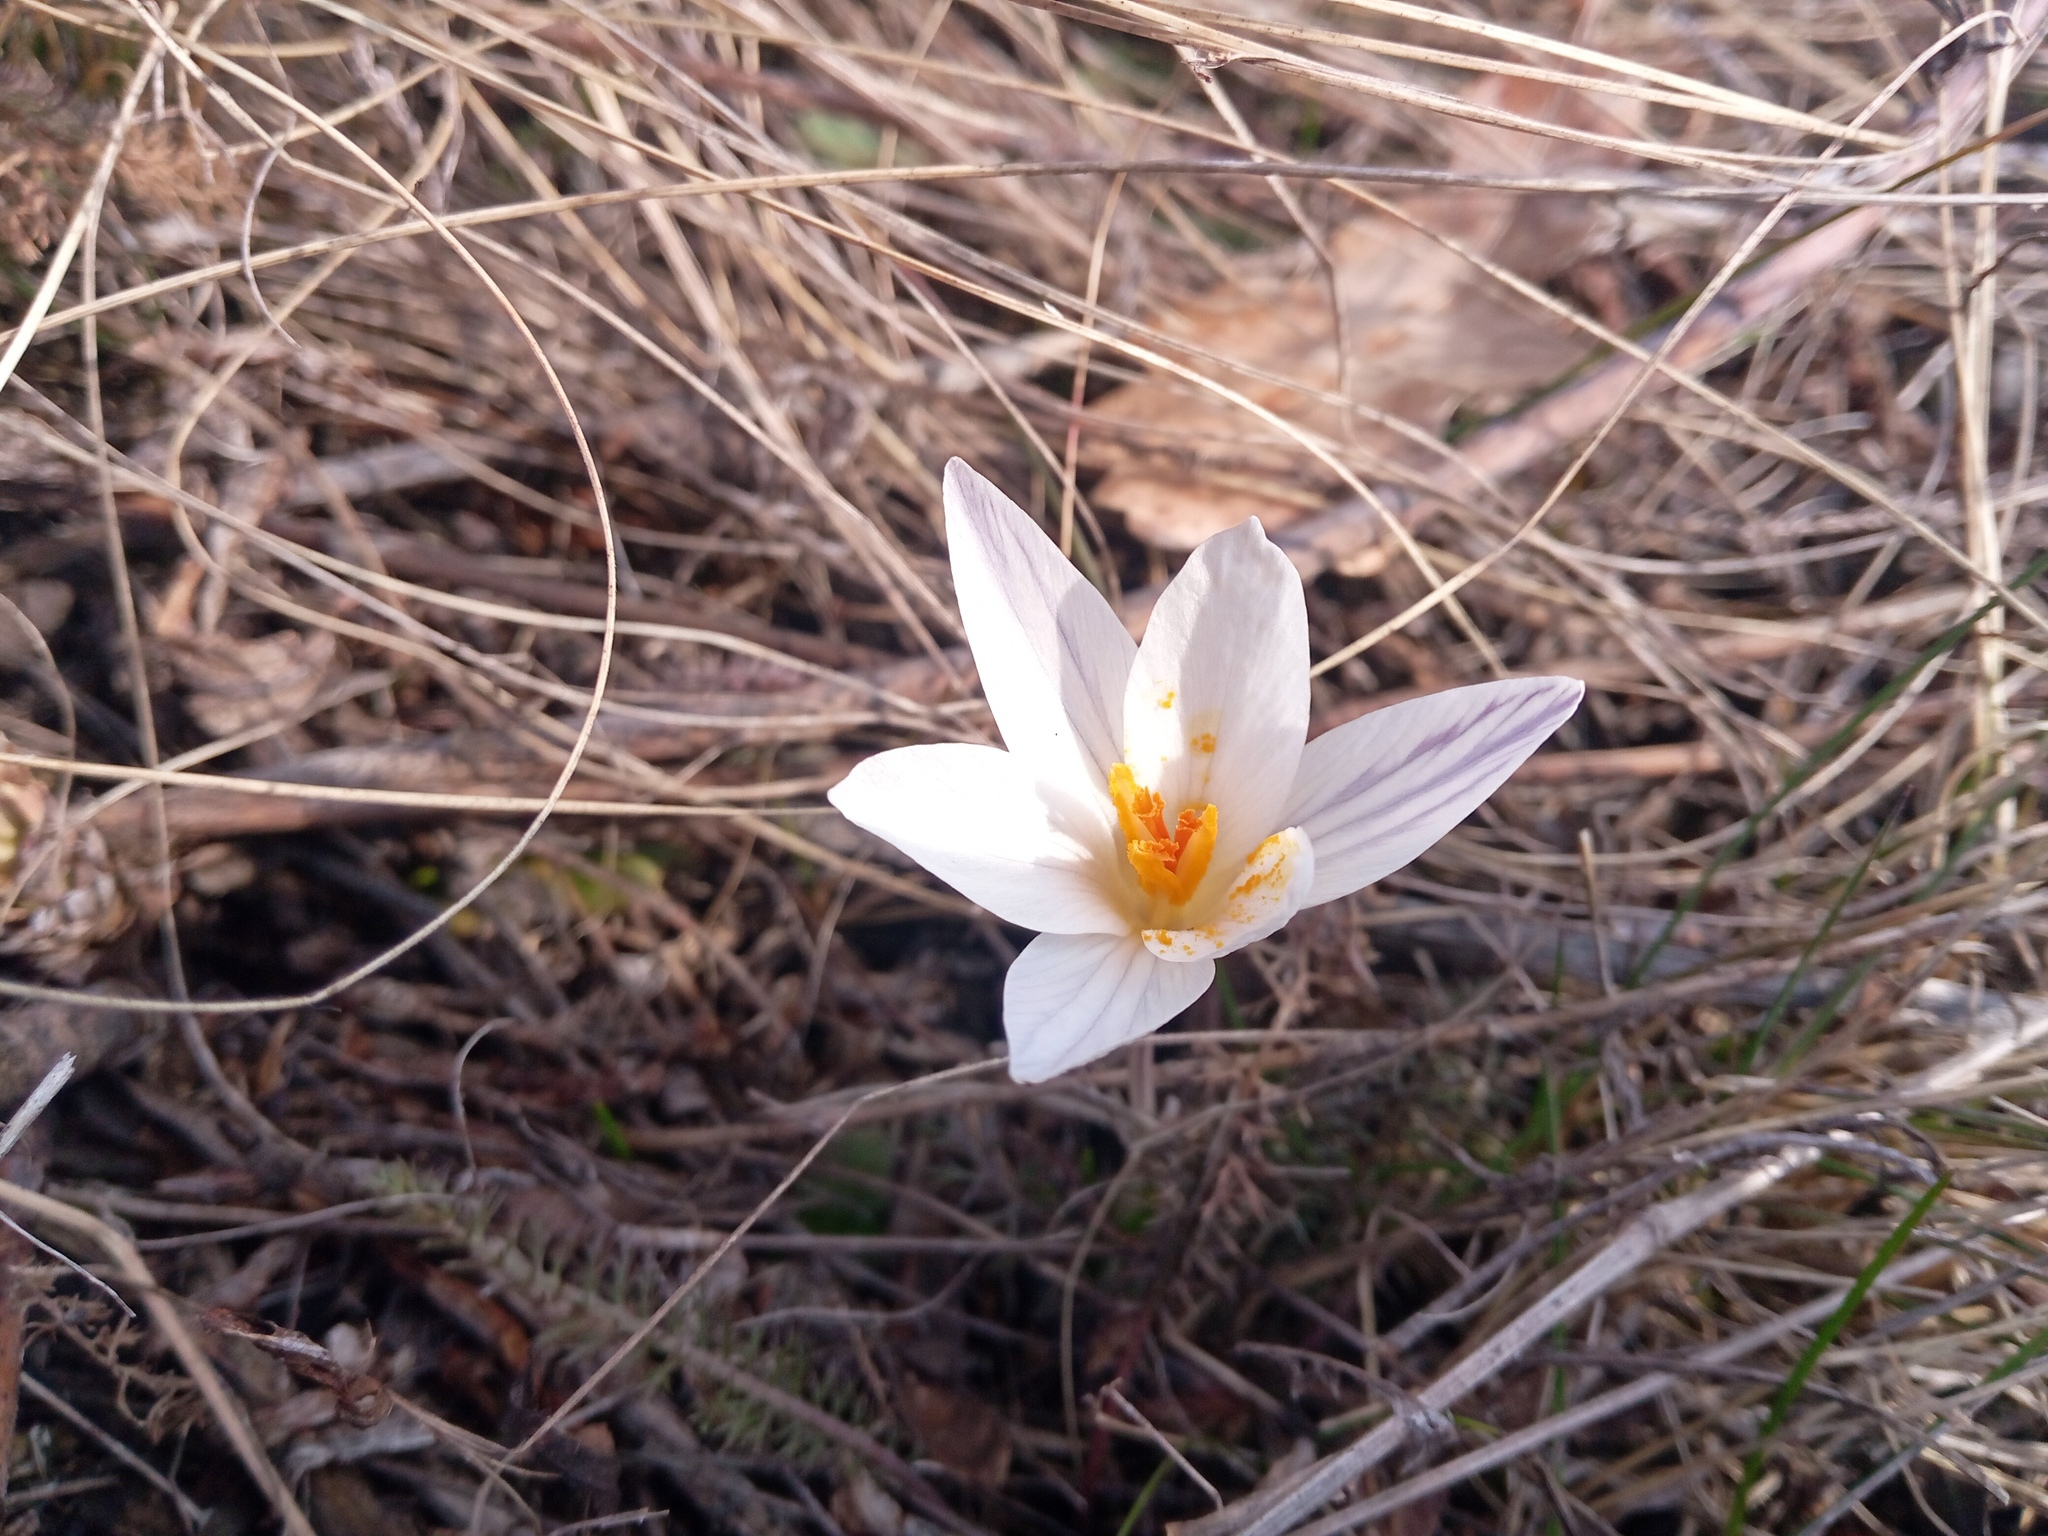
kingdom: Plantae
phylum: Tracheophyta
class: Liliopsida
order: Asparagales
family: Iridaceae
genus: Crocus
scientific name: Crocus reticulatus
